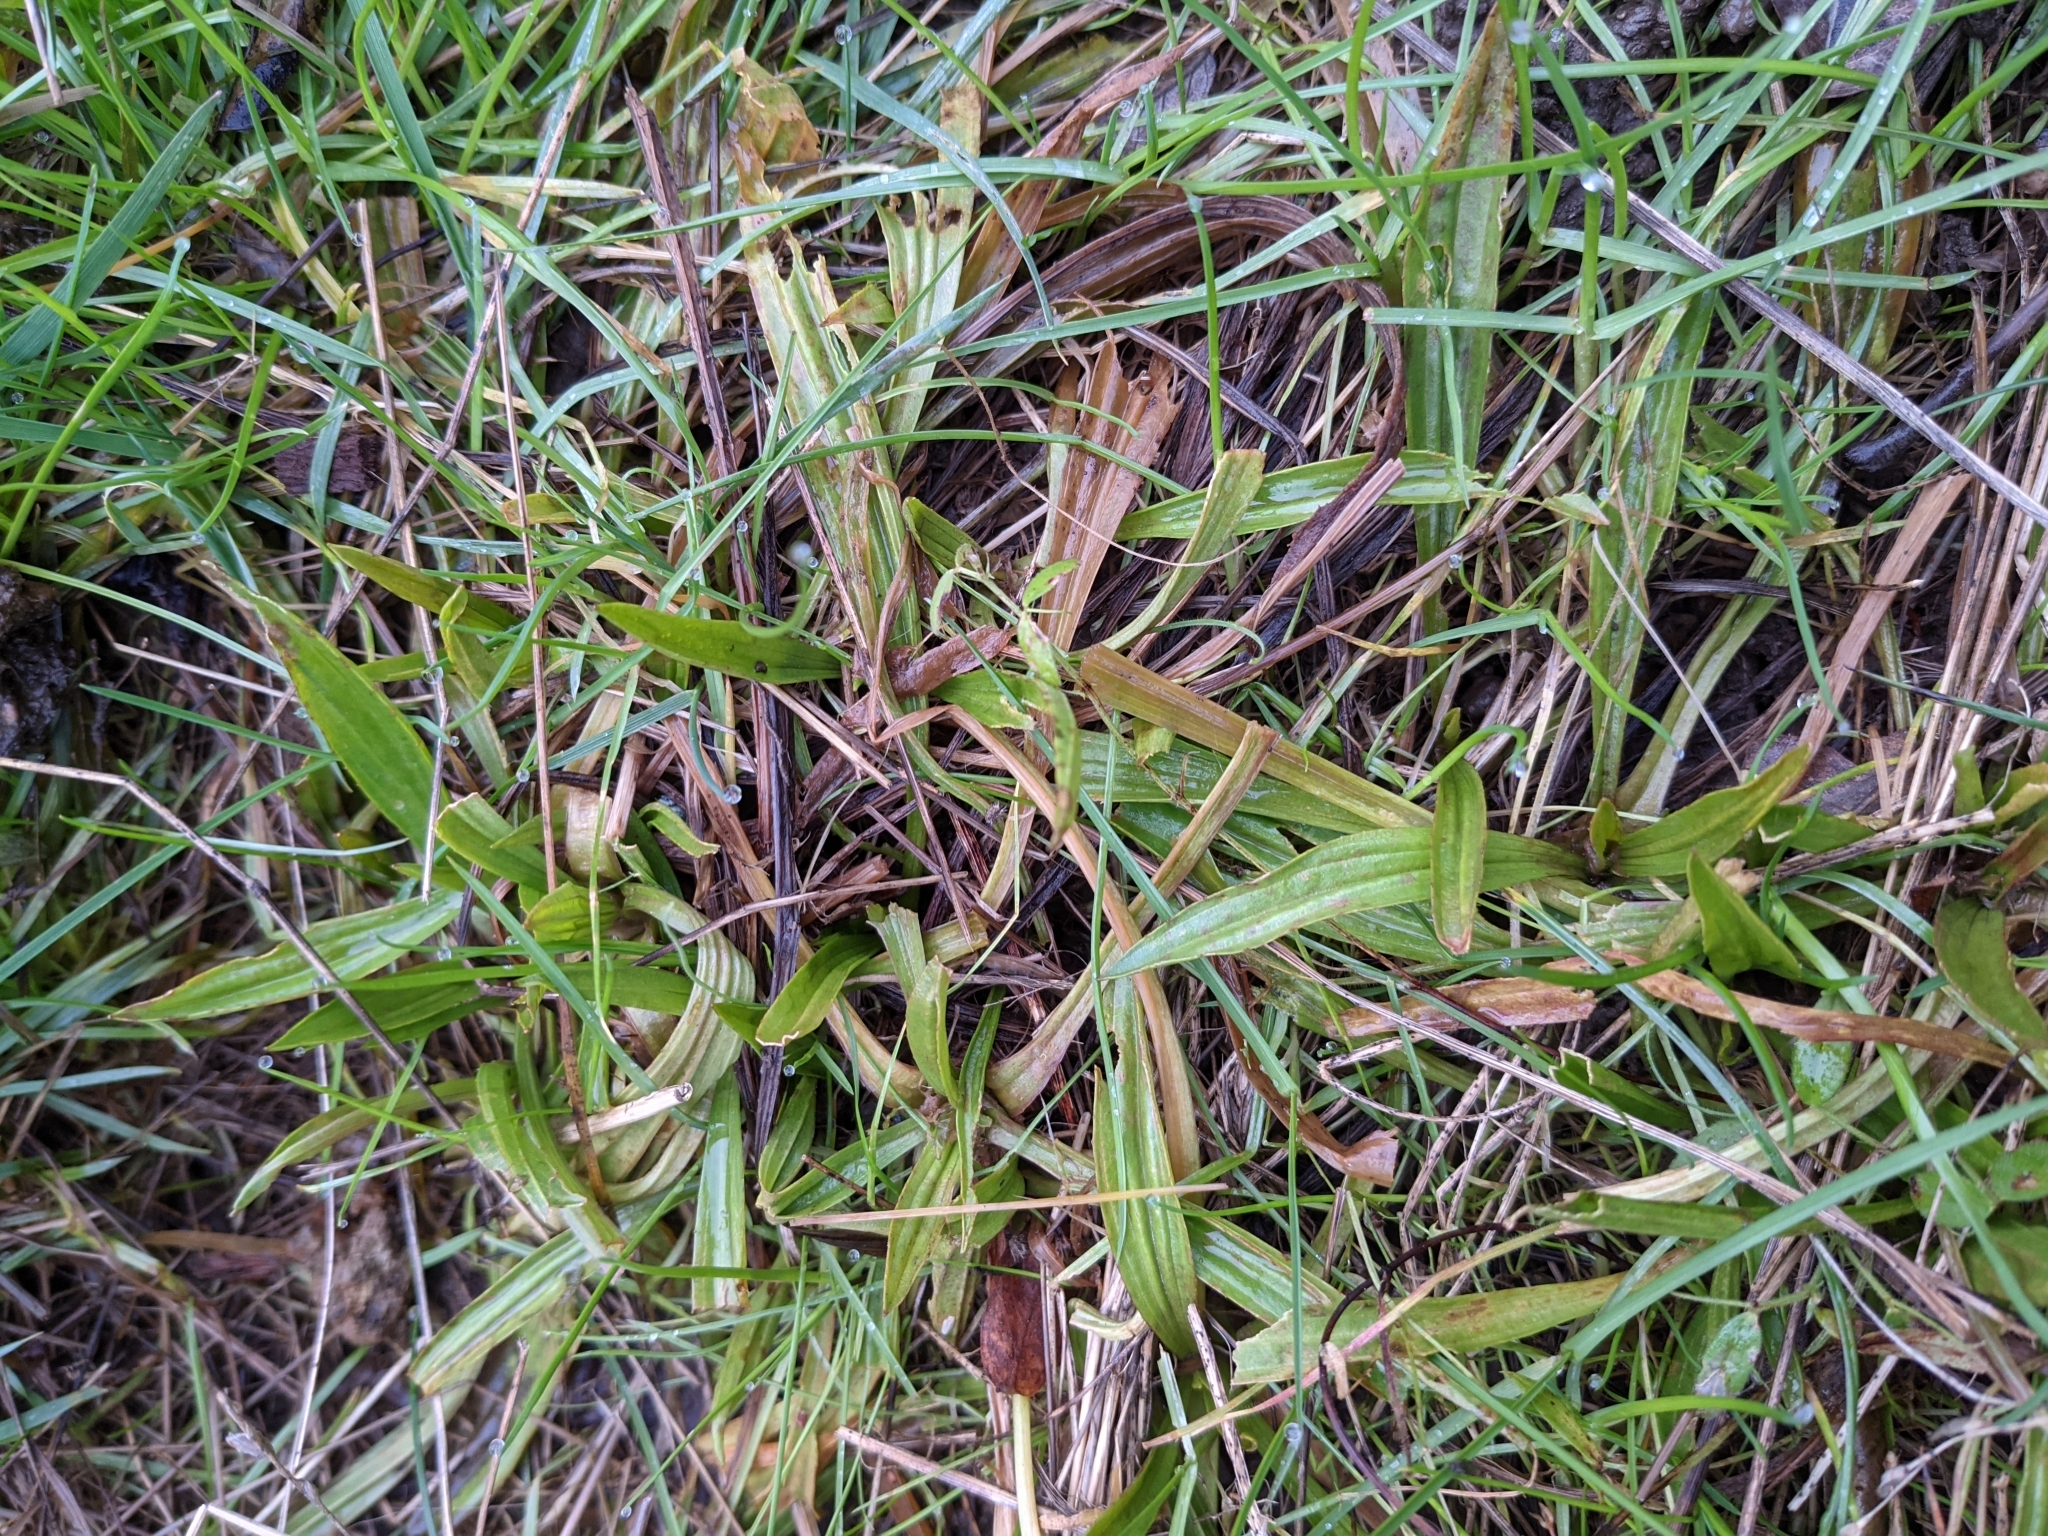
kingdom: Plantae
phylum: Tracheophyta
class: Magnoliopsida
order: Lamiales
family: Plantaginaceae
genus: Plantago
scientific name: Plantago lanceolata
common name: Ribwort plantain
